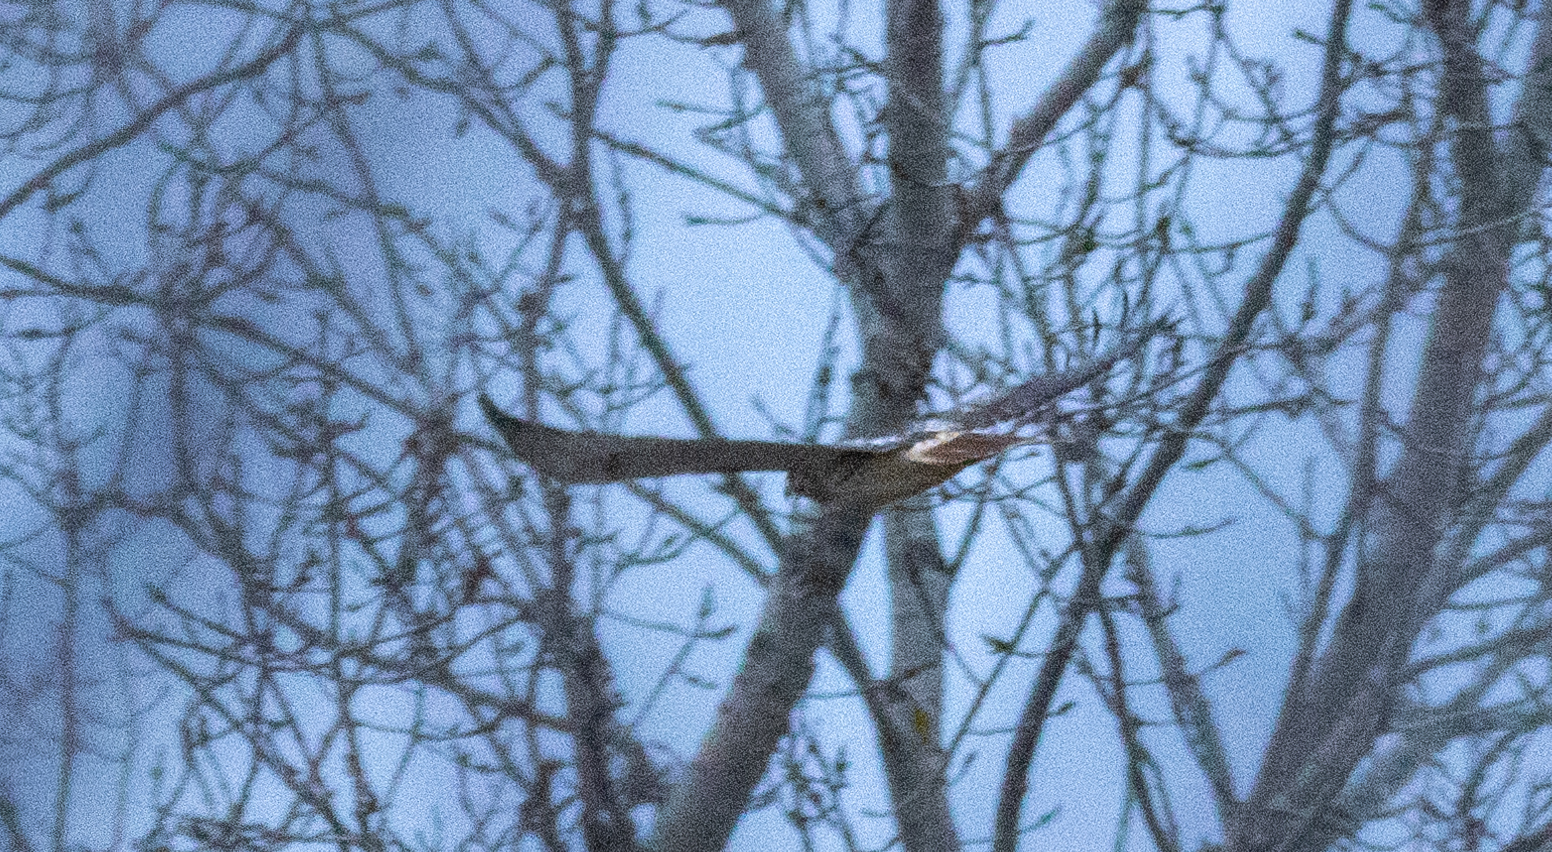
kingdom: Animalia
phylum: Chordata
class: Aves
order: Accipitriformes
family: Accipitridae
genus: Buteo
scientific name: Buteo jamaicensis
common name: Red-tailed hawk
